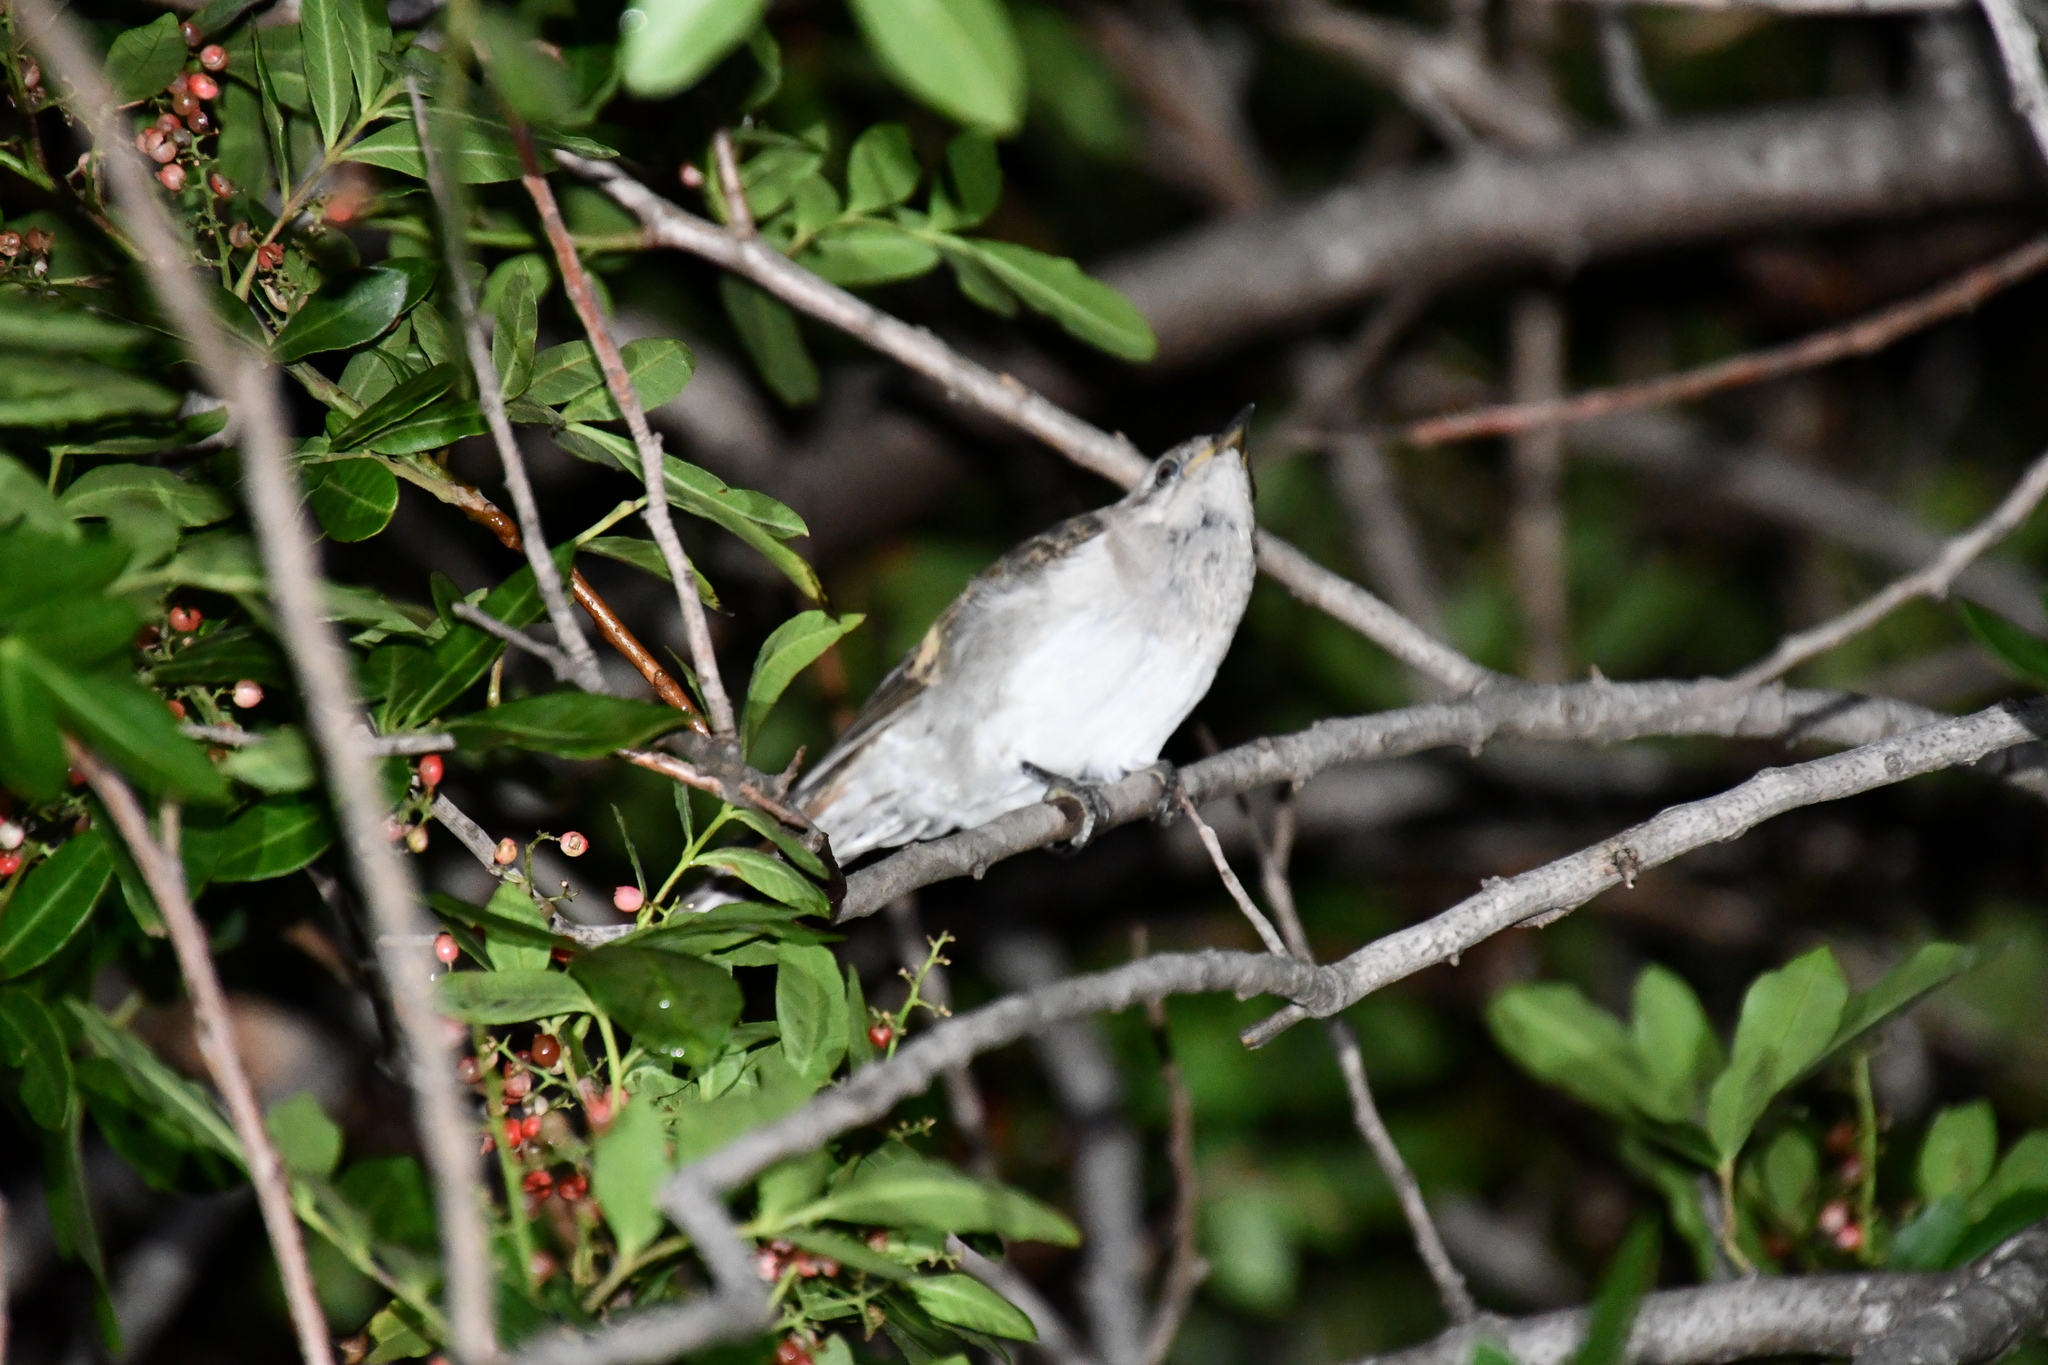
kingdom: Animalia
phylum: Chordata
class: Aves
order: Cuculiformes
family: Cuculidae
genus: Chrysococcyx
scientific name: Chrysococcyx basalis
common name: Horsfield's bronze cuckoo
